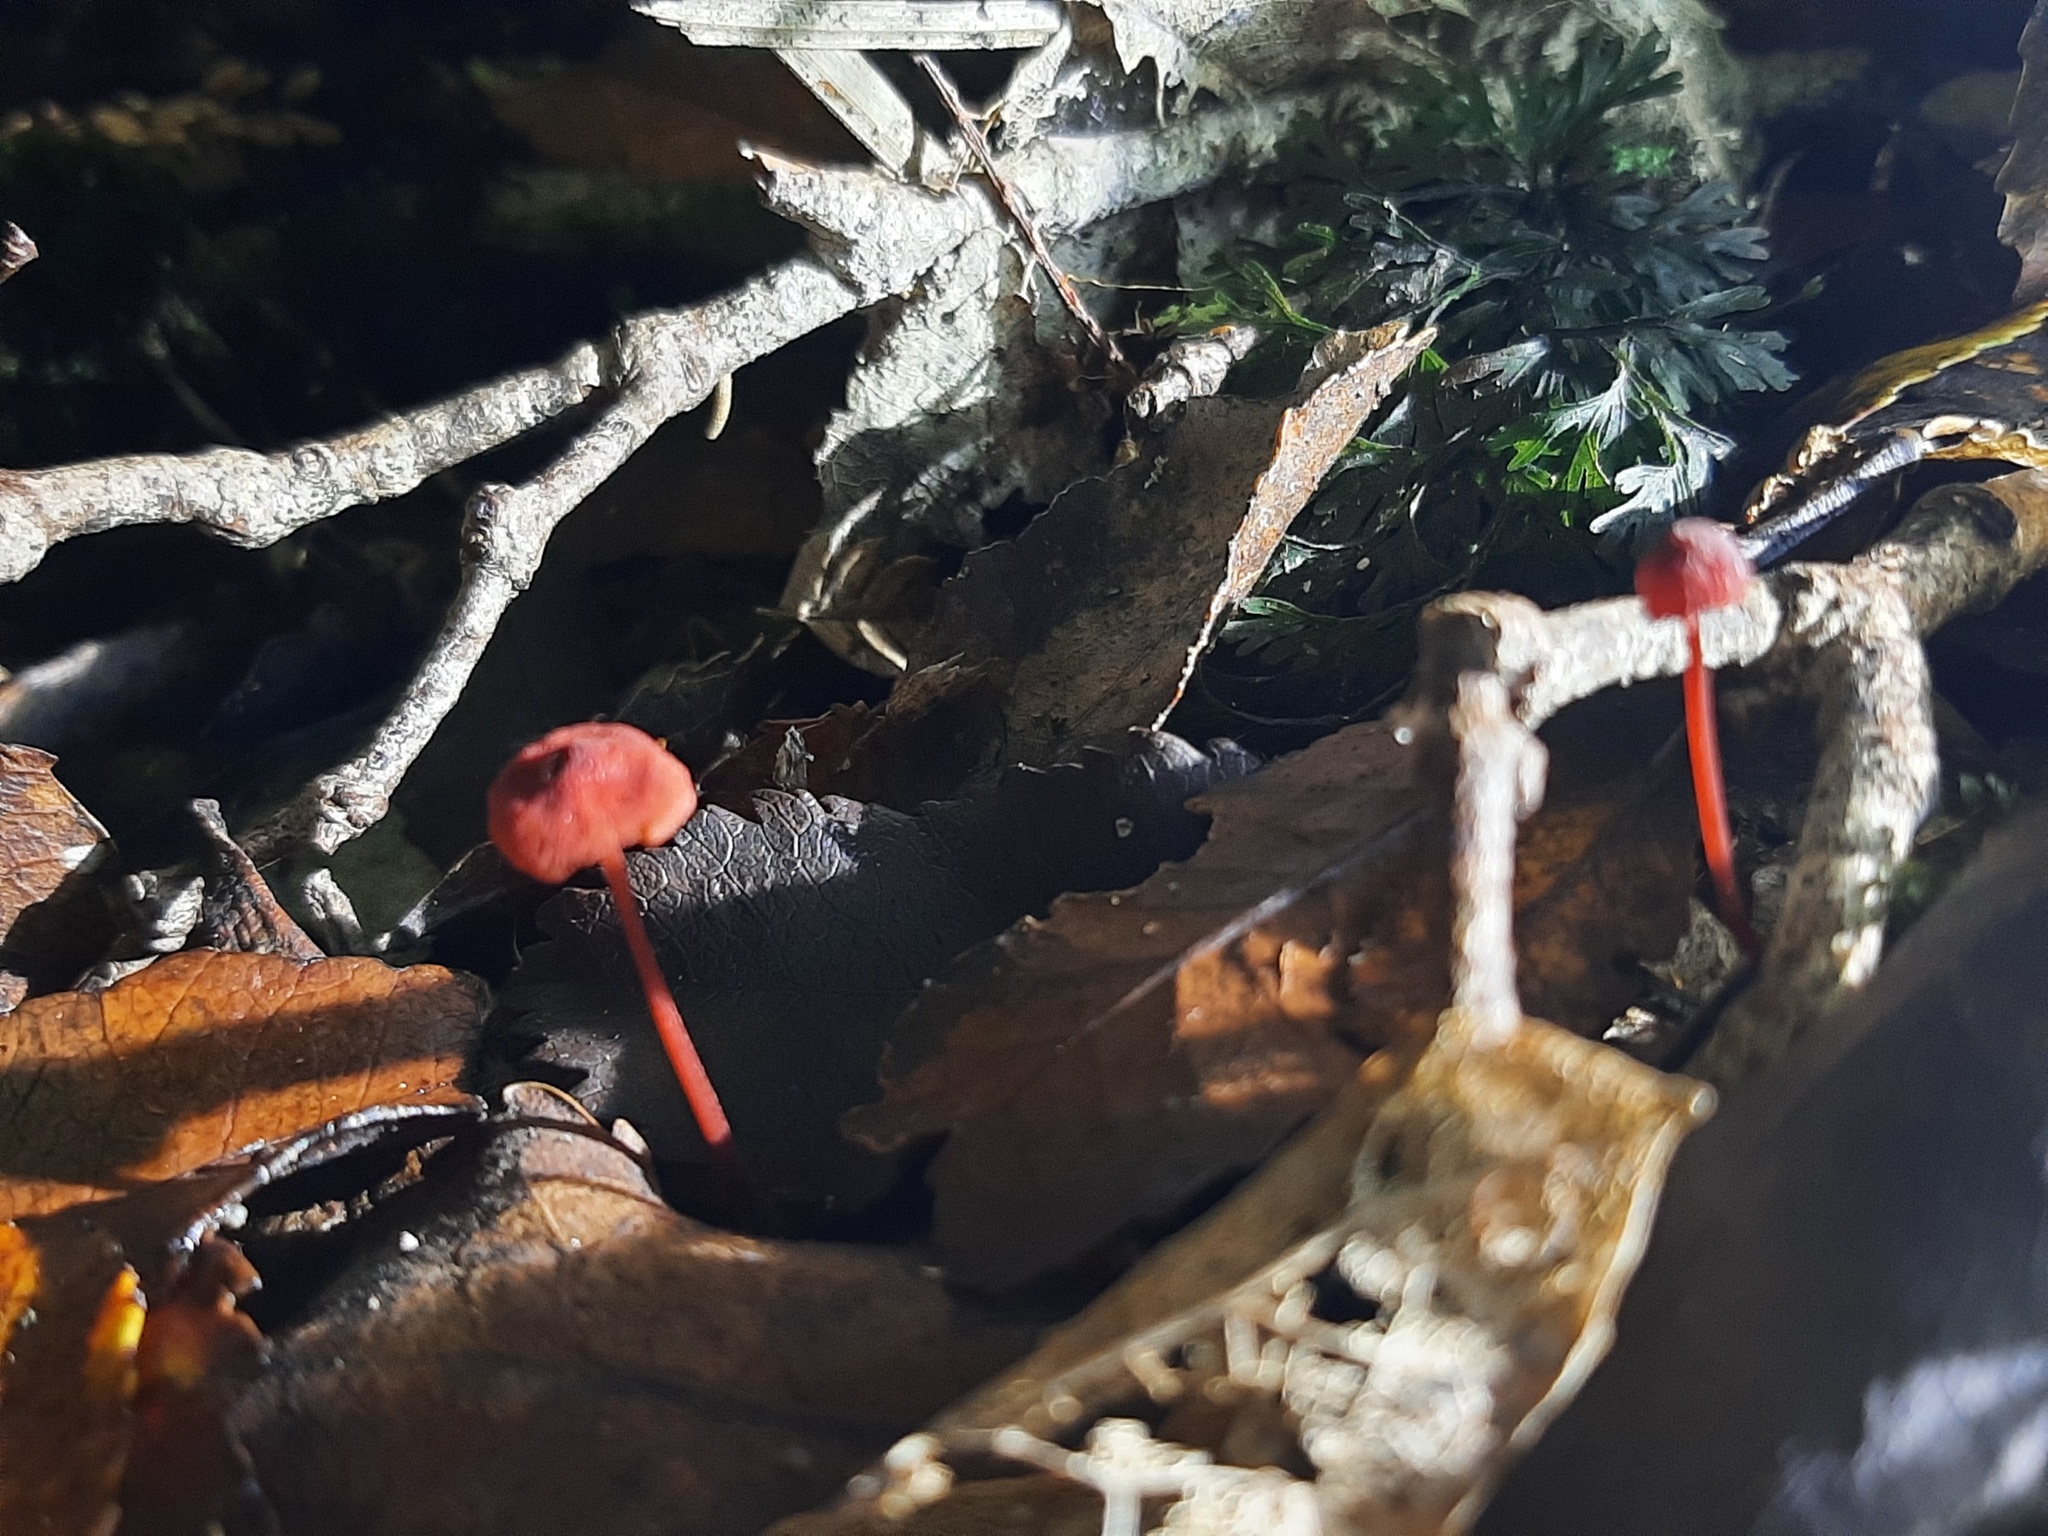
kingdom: Fungi
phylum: Basidiomycota
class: Agaricomycetes
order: Agaricales
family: Mycenaceae
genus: Cruentomycena
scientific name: Cruentomycena viscidocruenta
